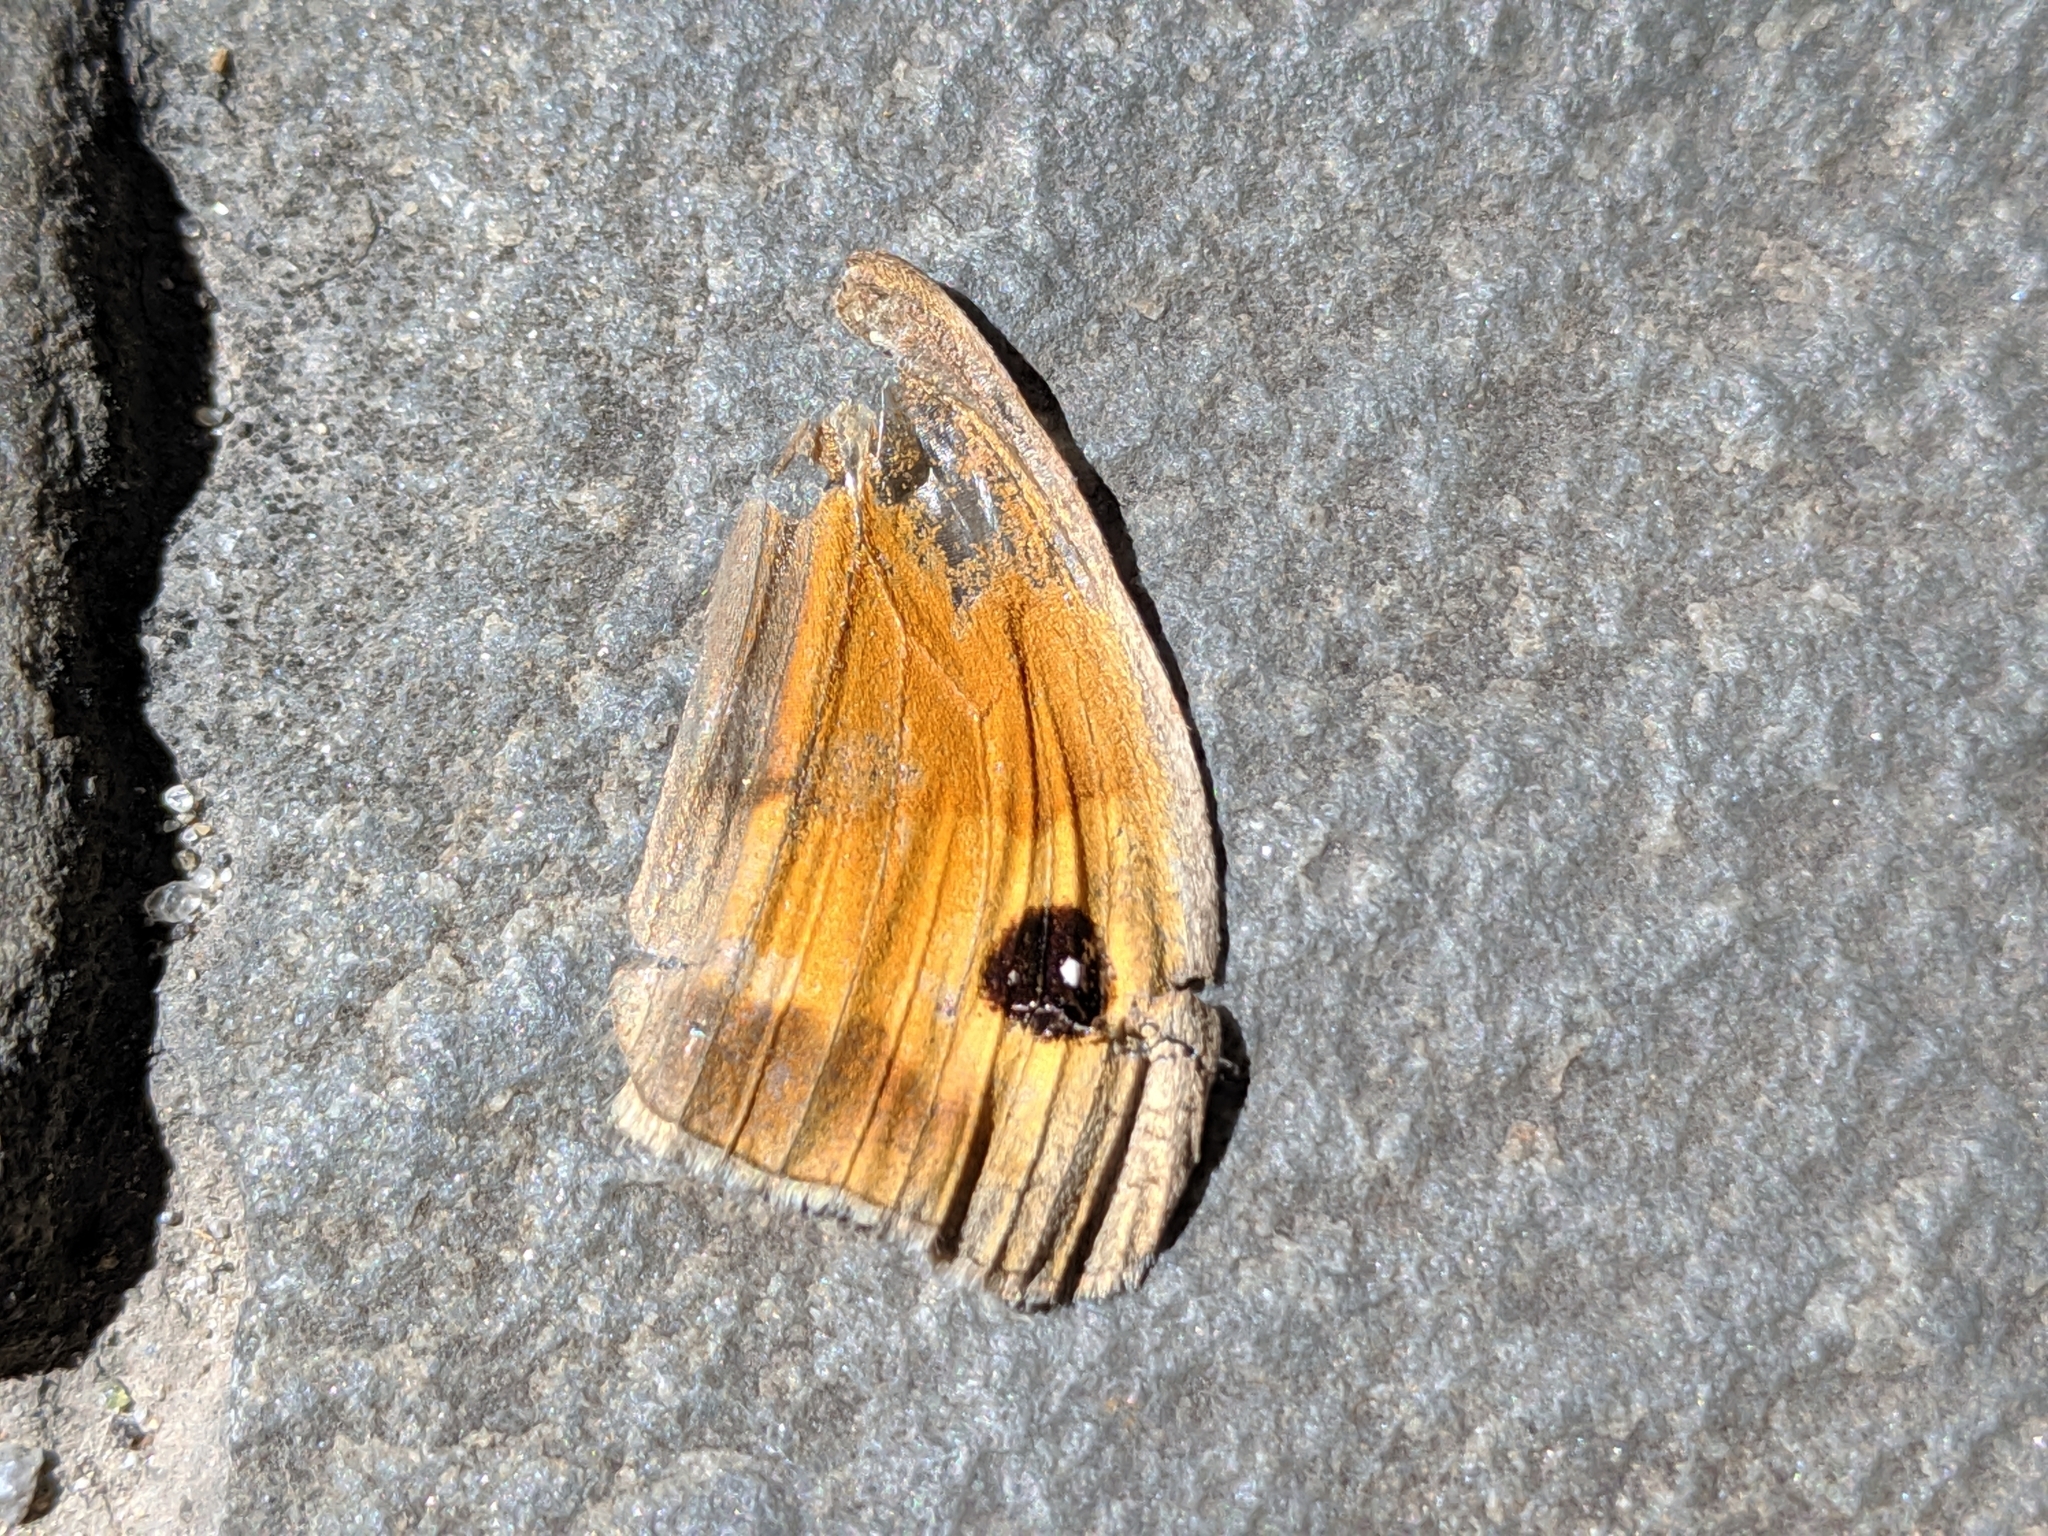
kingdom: Animalia
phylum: Arthropoda
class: Insecta
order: Lepidoptera
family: Nymphalidae
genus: Maniola
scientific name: Maniola jurtina
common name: Meadow brown
